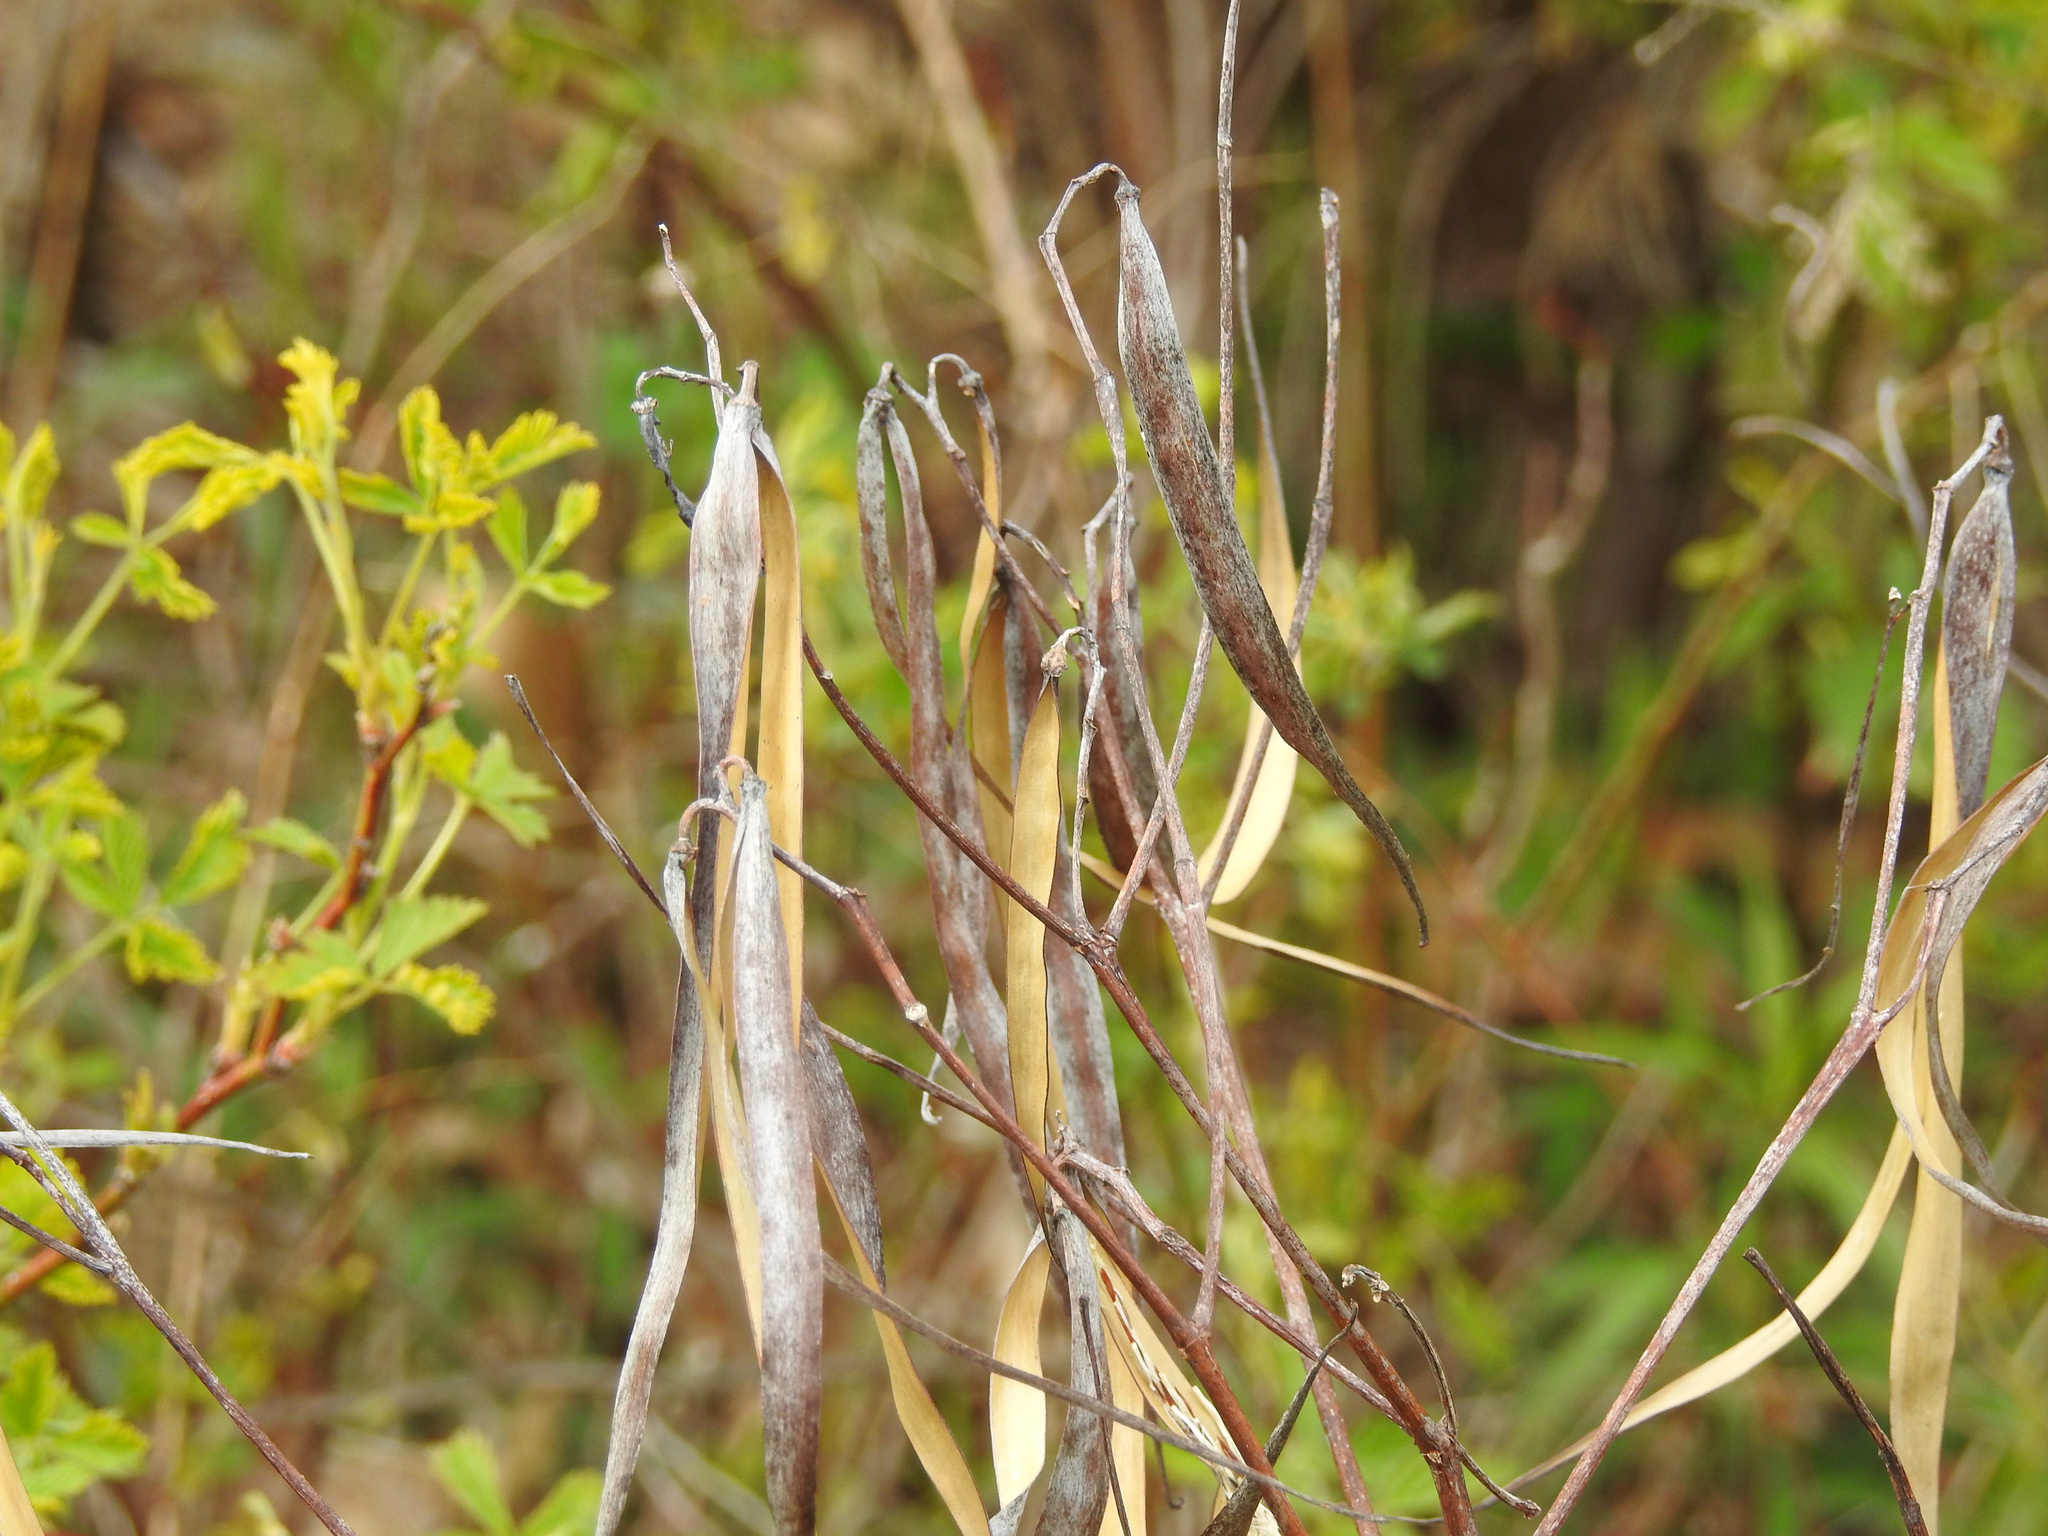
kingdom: Plantae
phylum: Tracheophyta
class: Magnoliopsida
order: Gentianales
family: Apocynaceae
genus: Apocynum
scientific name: Apocynum cannabinum
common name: Hemp dogbane
